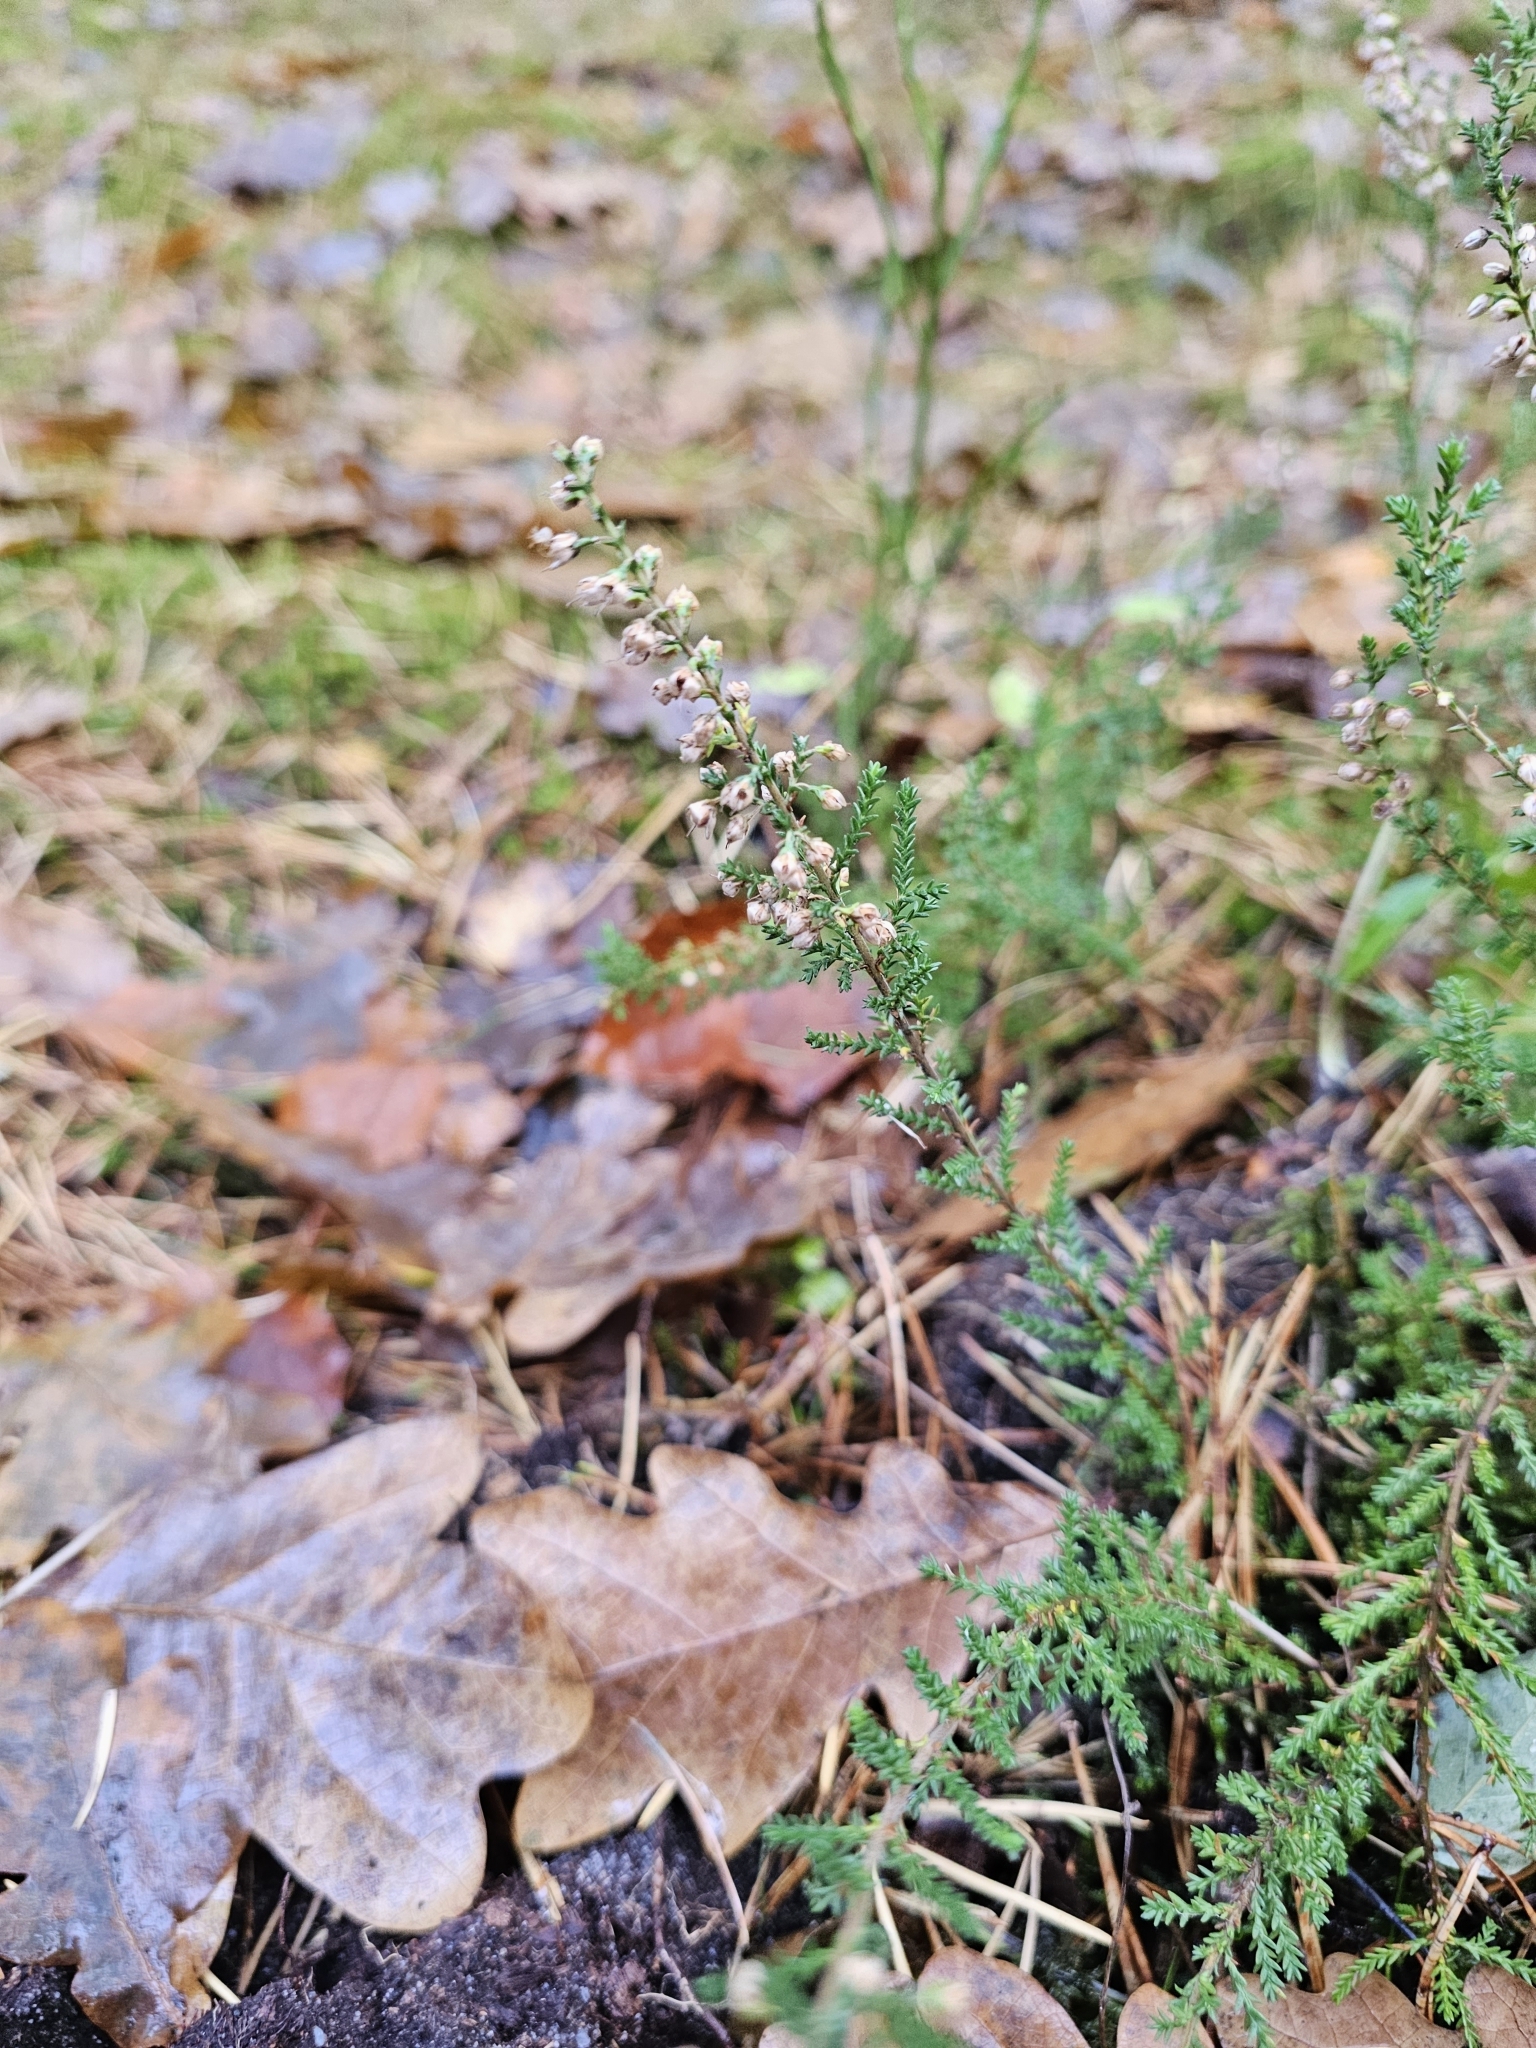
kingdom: Plantae
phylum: Tracheophyta
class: Magnoliopsida
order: Ericales
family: Ericaceae
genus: Calluna
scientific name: Calluna vulgaris
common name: Heather
